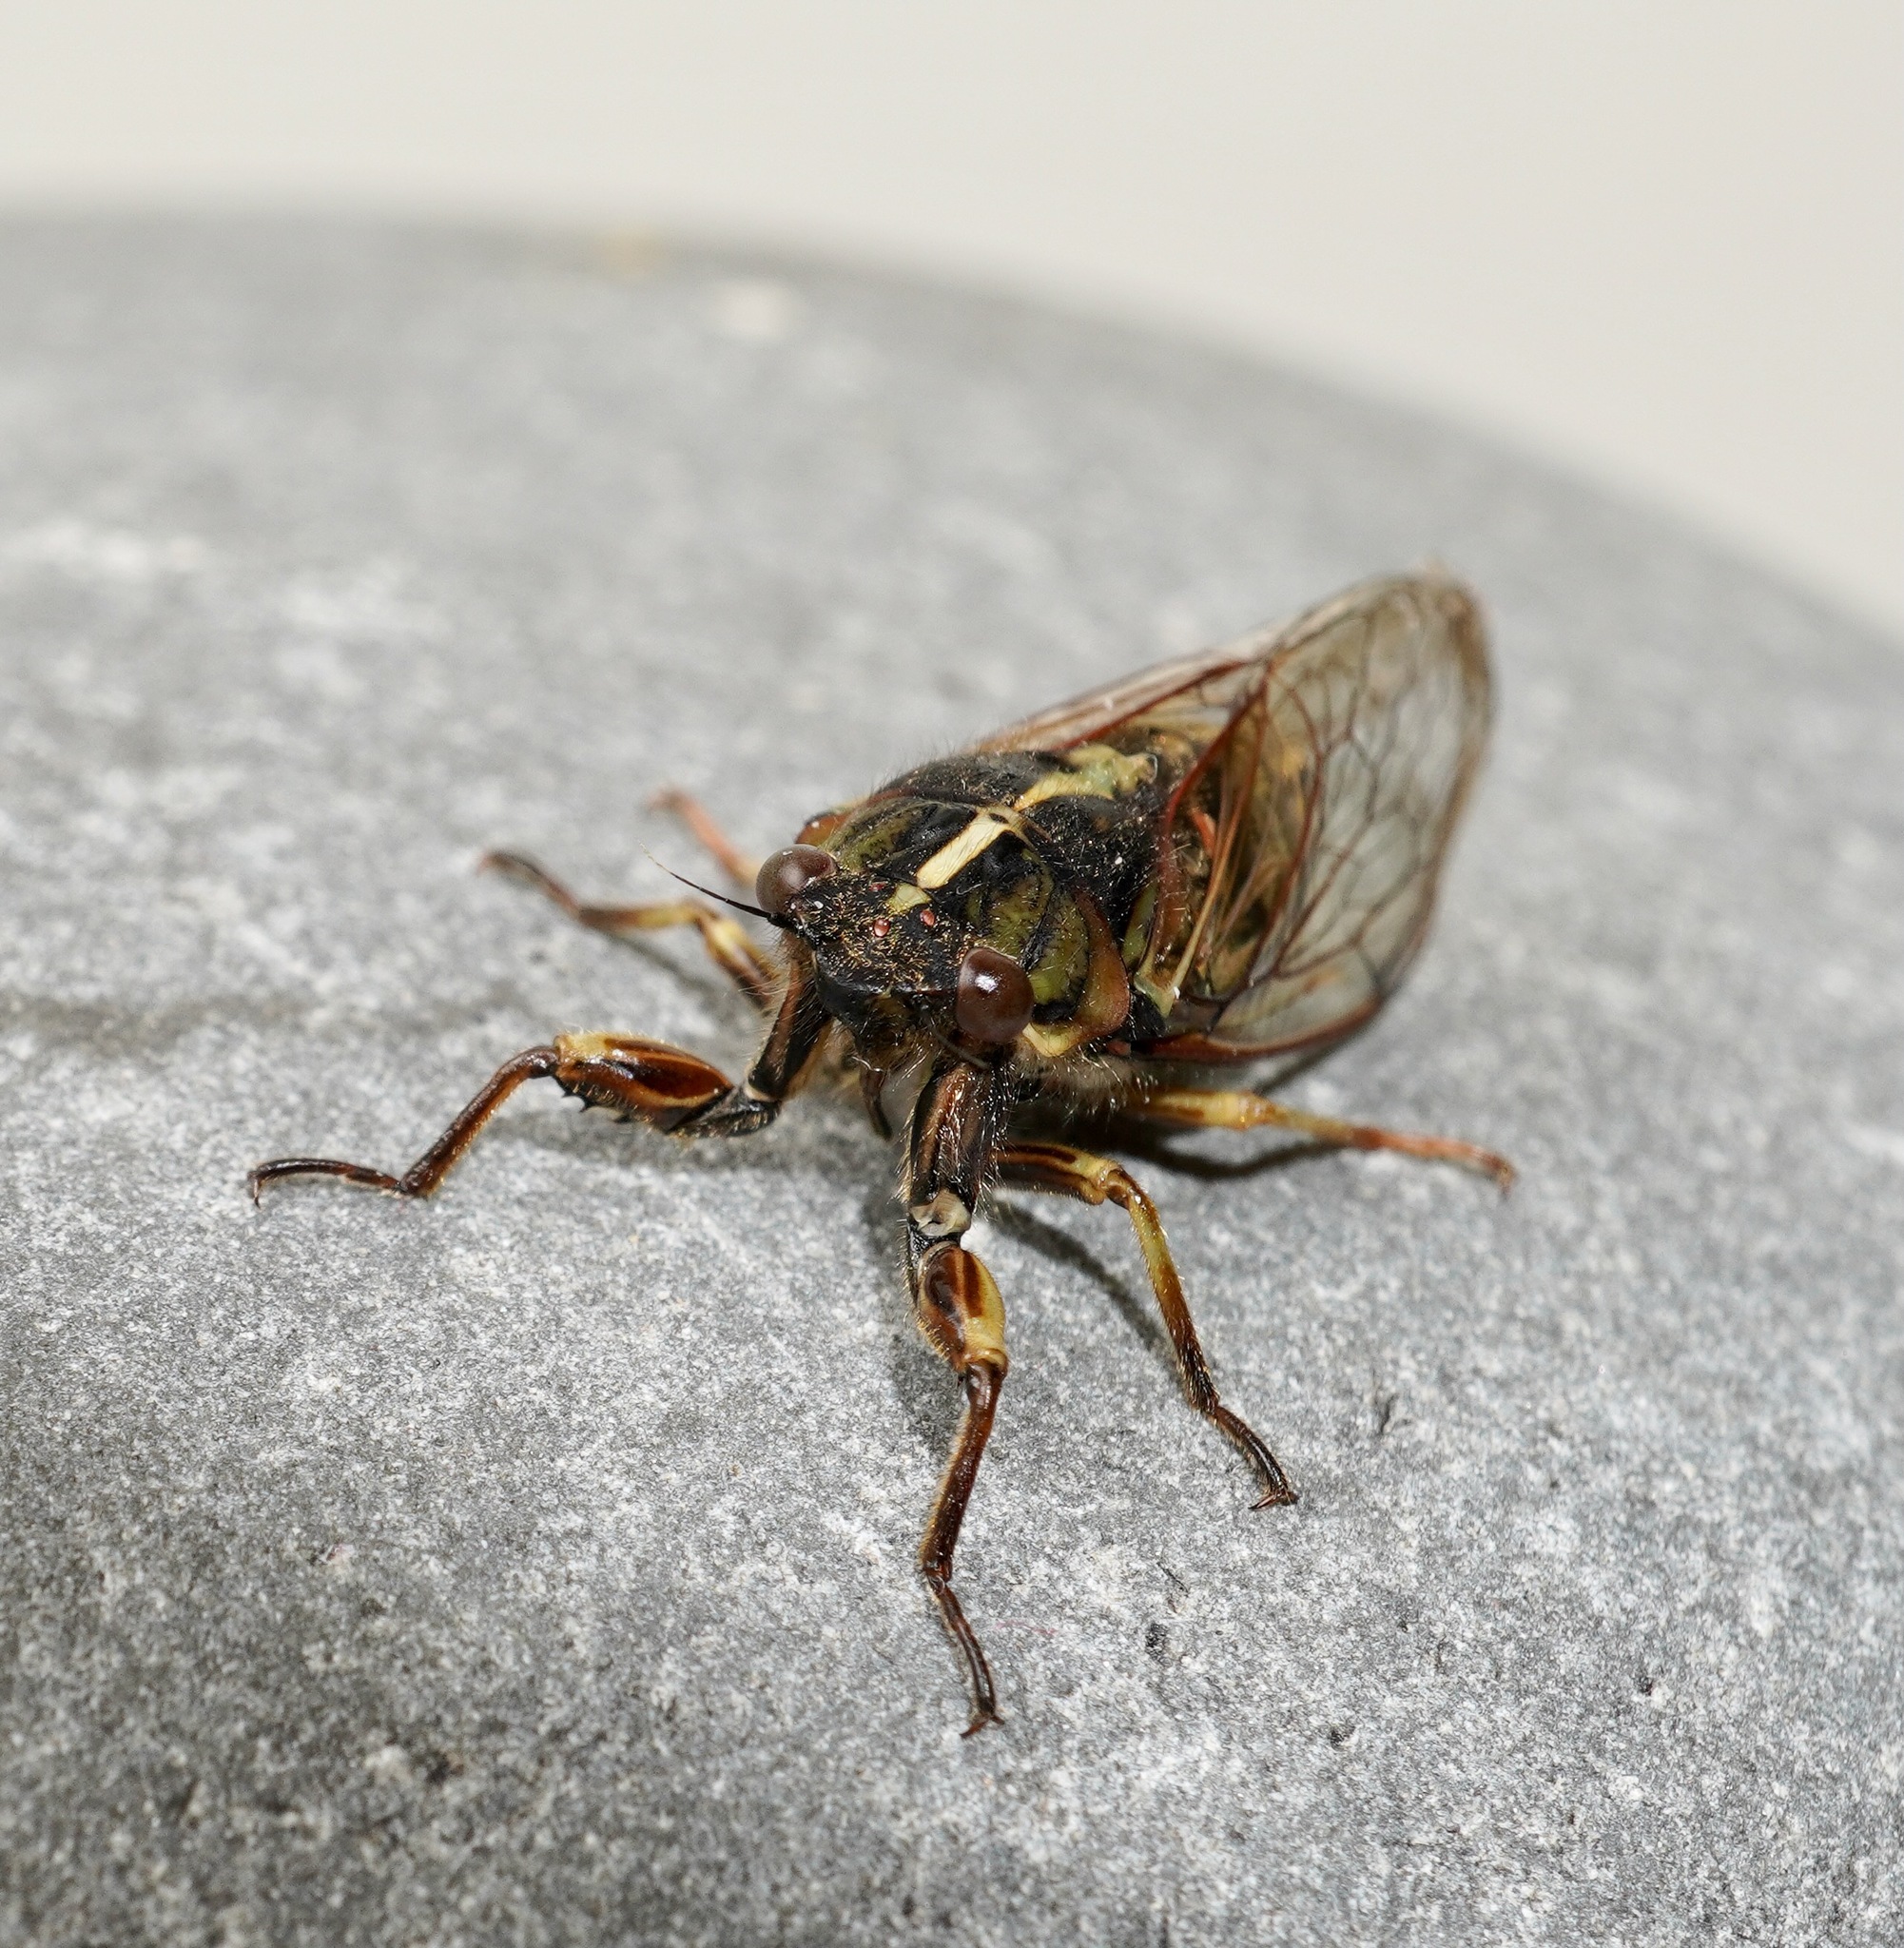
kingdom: Animalia
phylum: Arthropoda
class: Insecta
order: Hemiptera
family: Cicadidae
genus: Kikihia
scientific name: Kikihia muta
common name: Variable cicada
